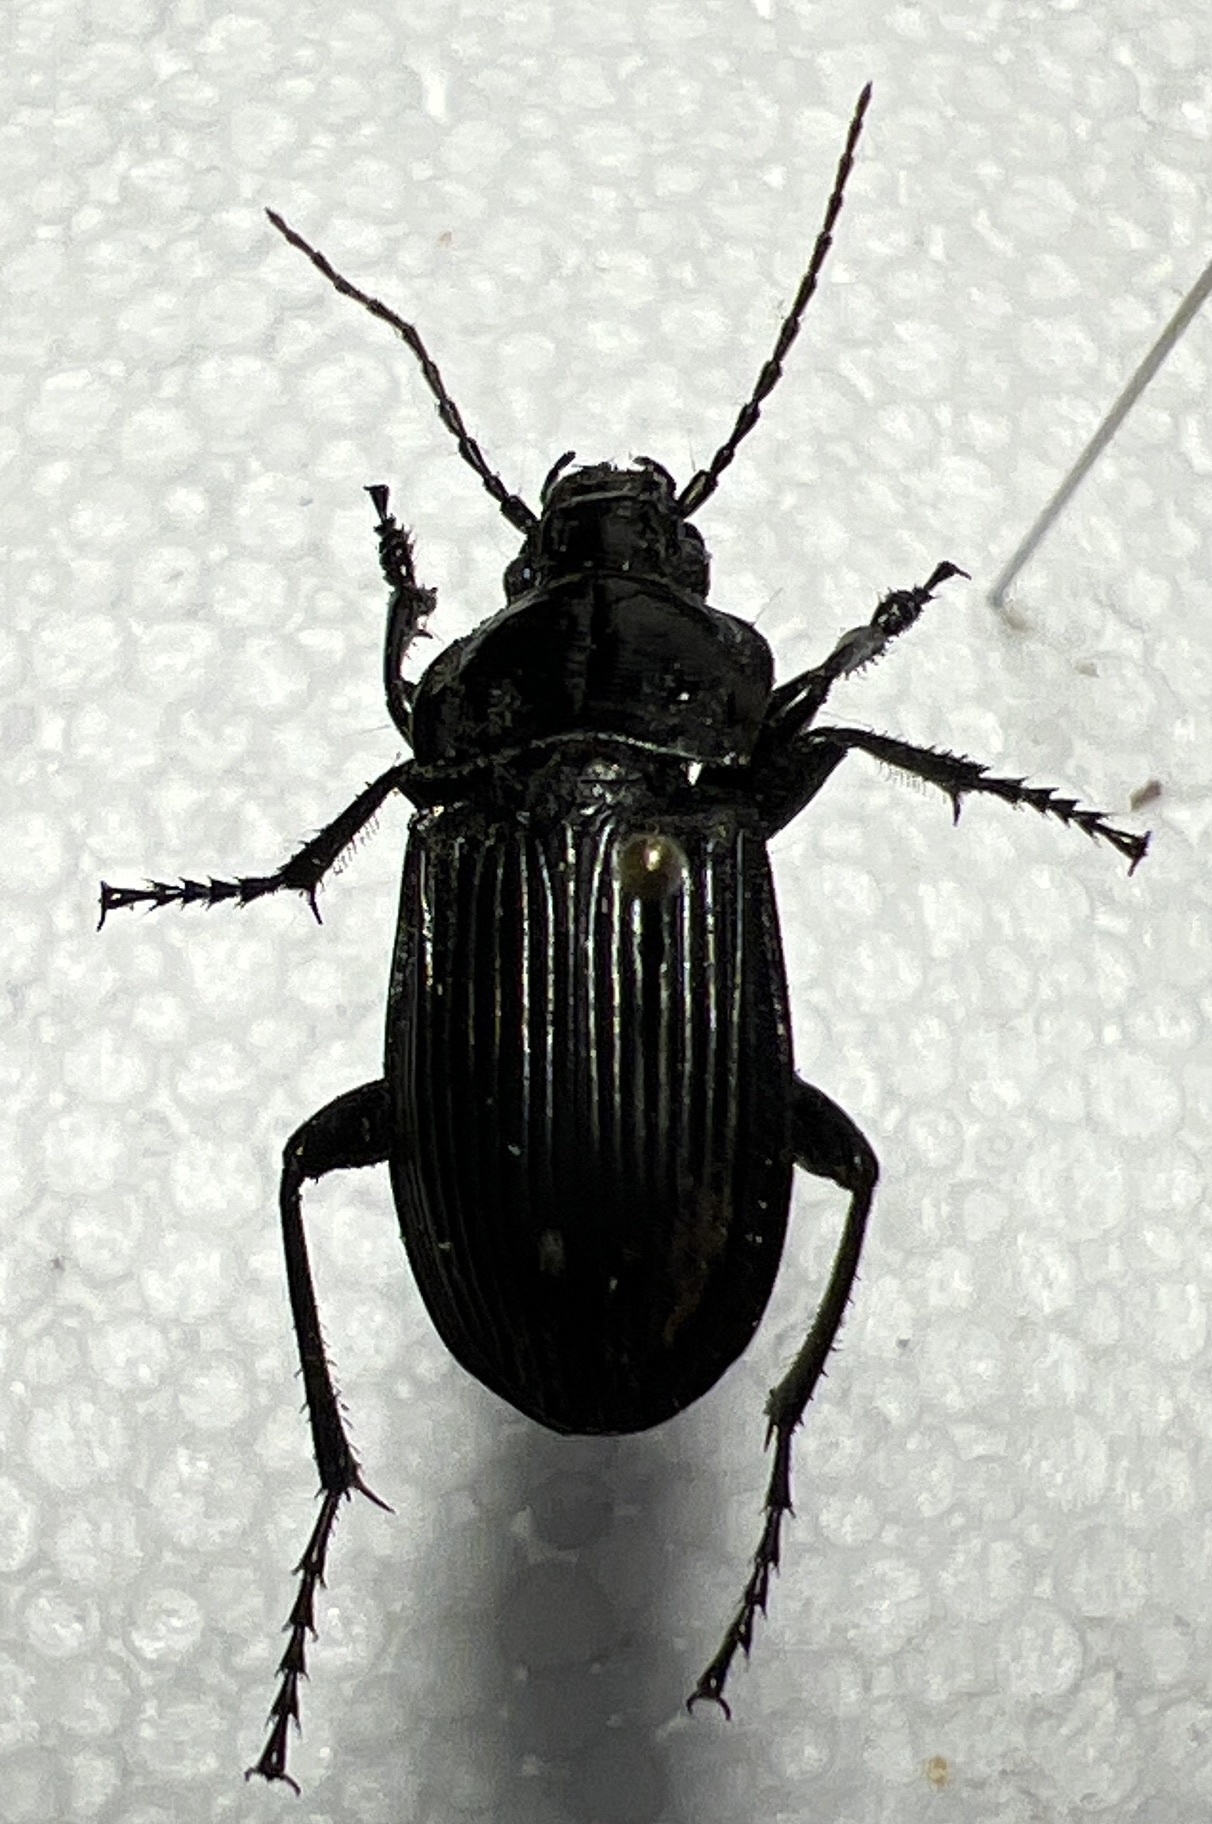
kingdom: Animalia
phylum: Arthropoda
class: Insecta
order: Coleoptera
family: Carabidae
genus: Abax
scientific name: Abax parallelepipedus
